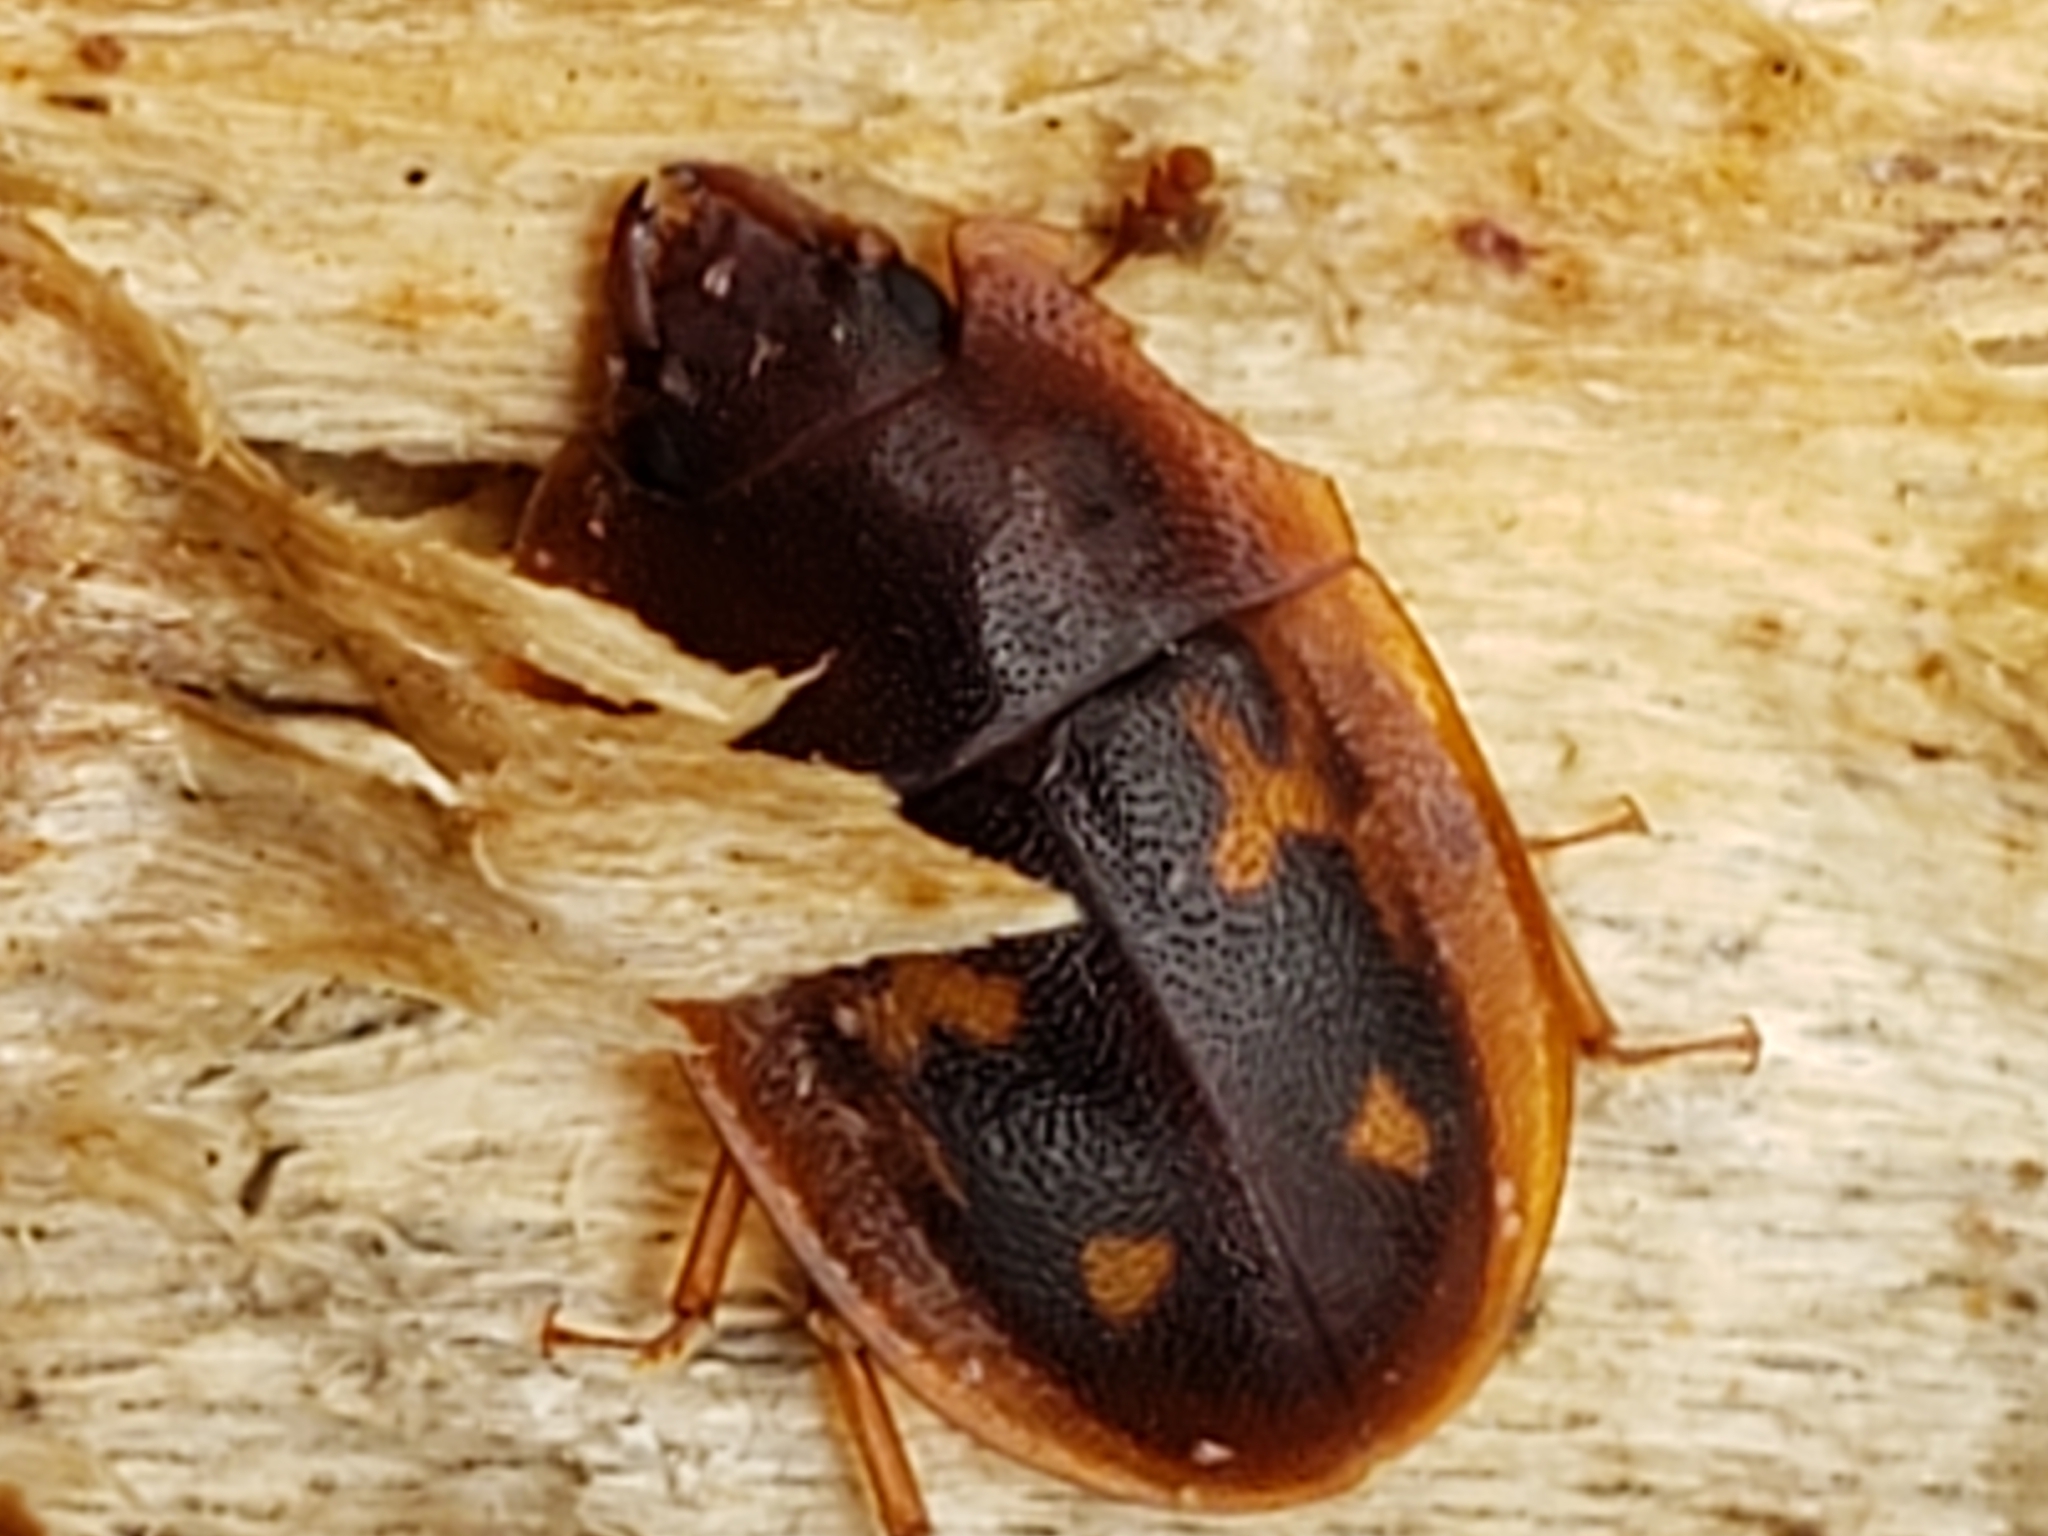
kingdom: Animalia
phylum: Arthropoda
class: Insecta
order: Coleoptera
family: Nitidulidae
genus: Prometopia
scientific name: Prometopia sexmaculata
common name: Six-spotted sap-feeding beetle
